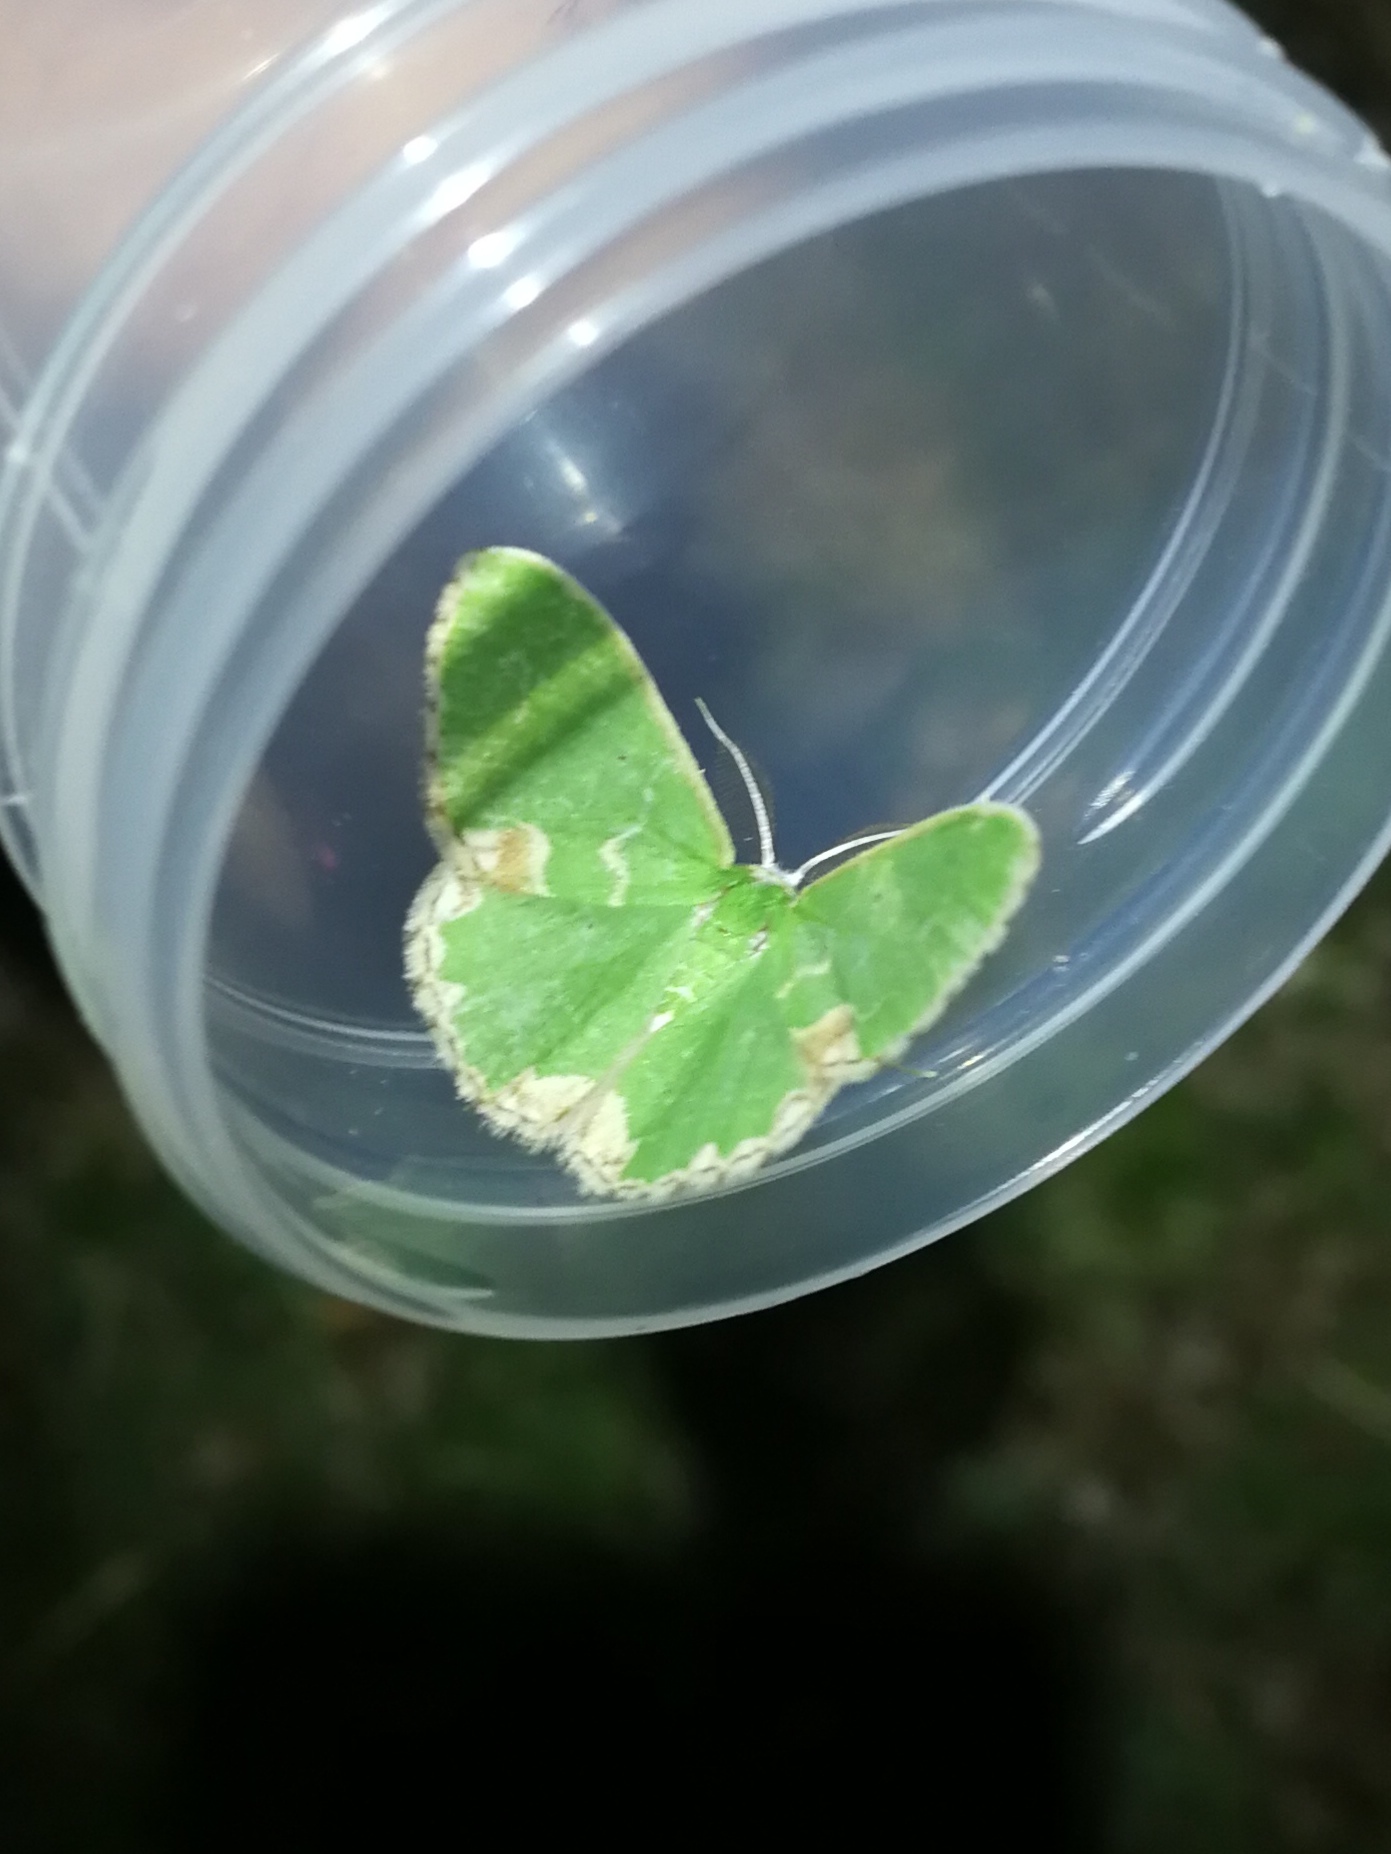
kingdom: Animalia
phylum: Arthropoda
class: Insecta
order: Lepidoptera
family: Geometridae
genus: Comibaena
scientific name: Comibaena bajularia
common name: Blotched emerald
